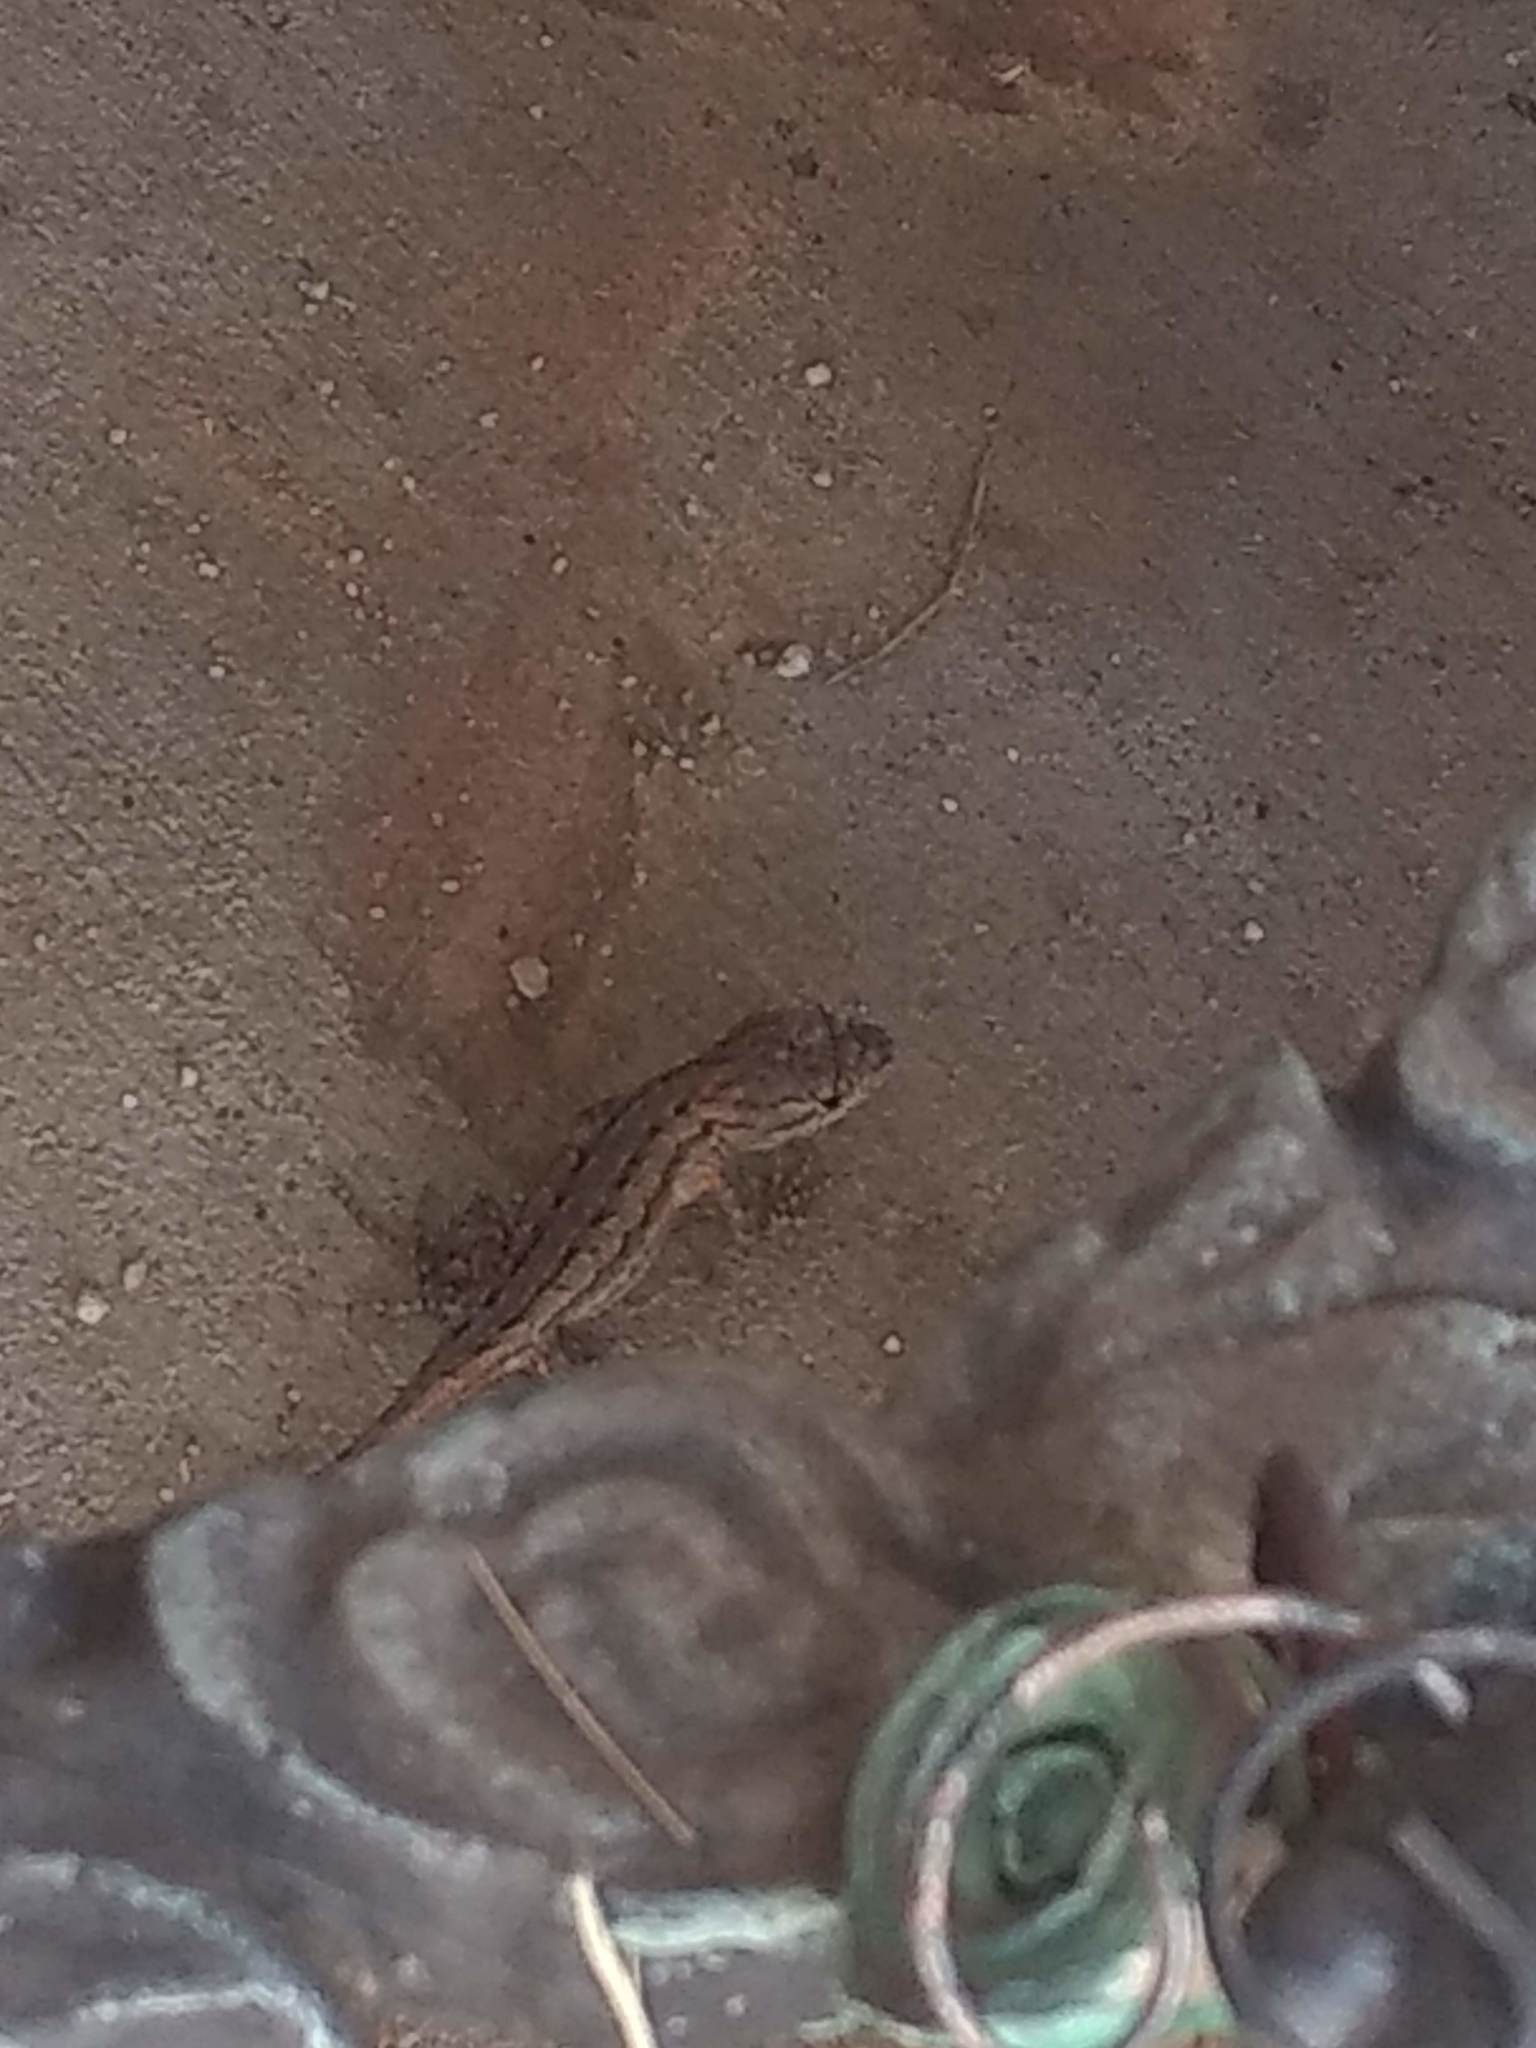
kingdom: Animalia
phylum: Chordata
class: Squamata
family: Phrynosomatidae
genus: Sceloporus
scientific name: Sceloporus occidentalis
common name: Western fence lizard
